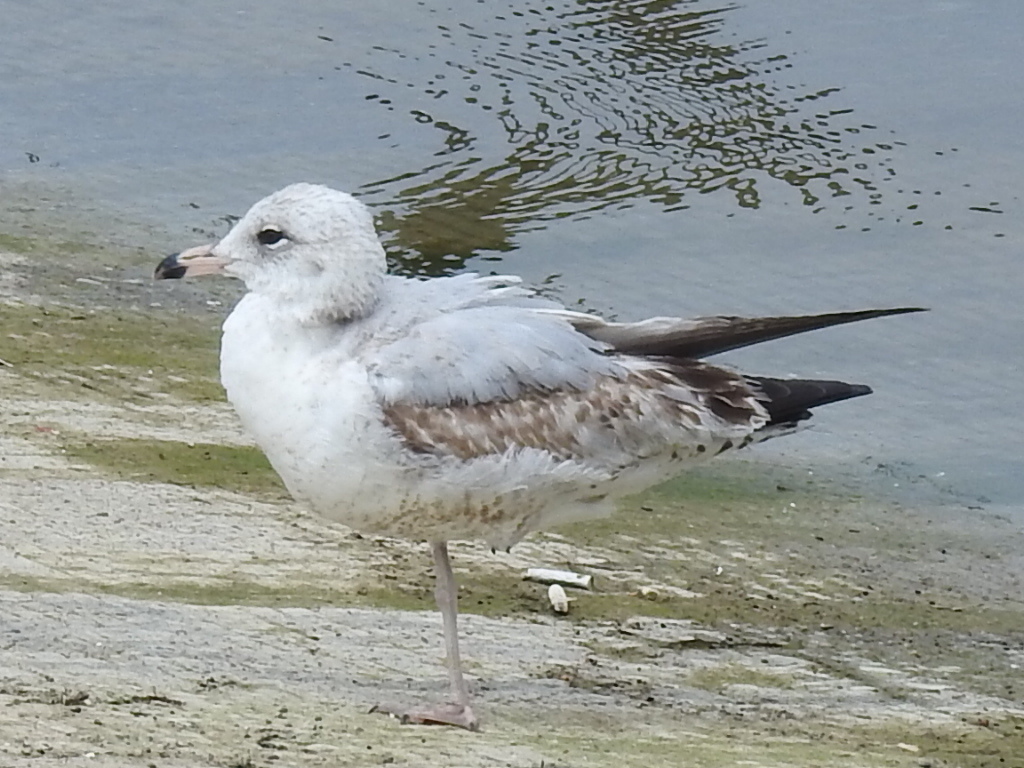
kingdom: Animalia
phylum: Chordata
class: Aves
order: Charadriiformes
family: Laridae
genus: Larus
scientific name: Larus delawarensis
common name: Ring-billed gull
